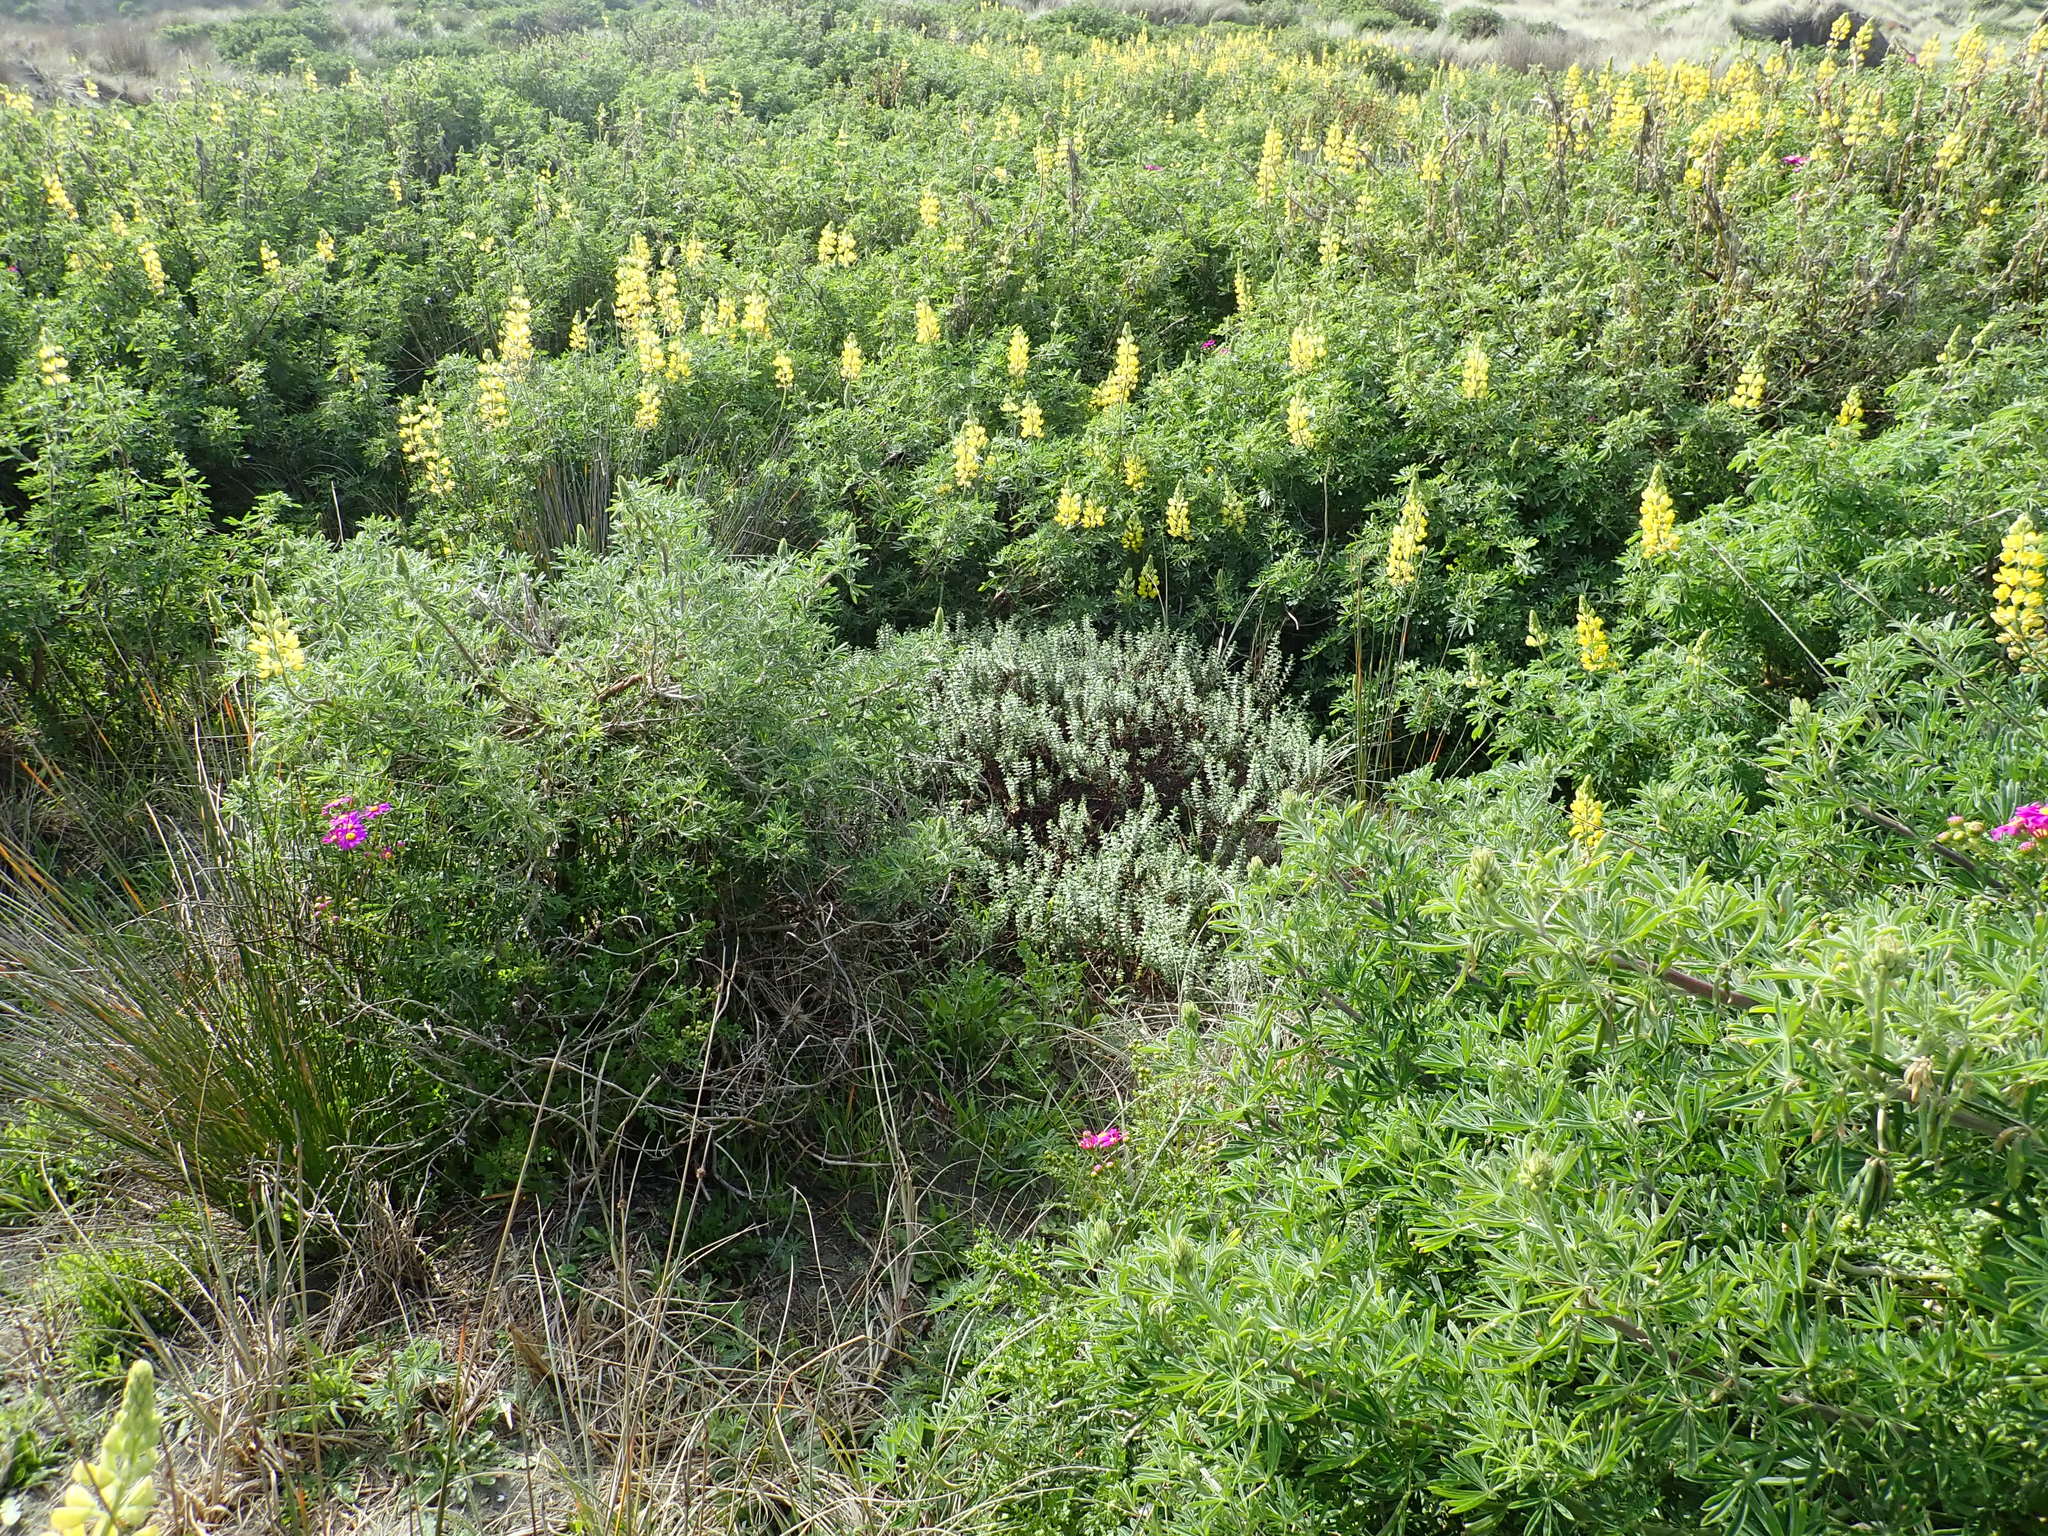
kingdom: Plantae
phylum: Tracheophyta
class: Magnoliopsida
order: Malvales
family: Thymelaeaceae
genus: Pimelea
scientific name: Pimelea villosa
